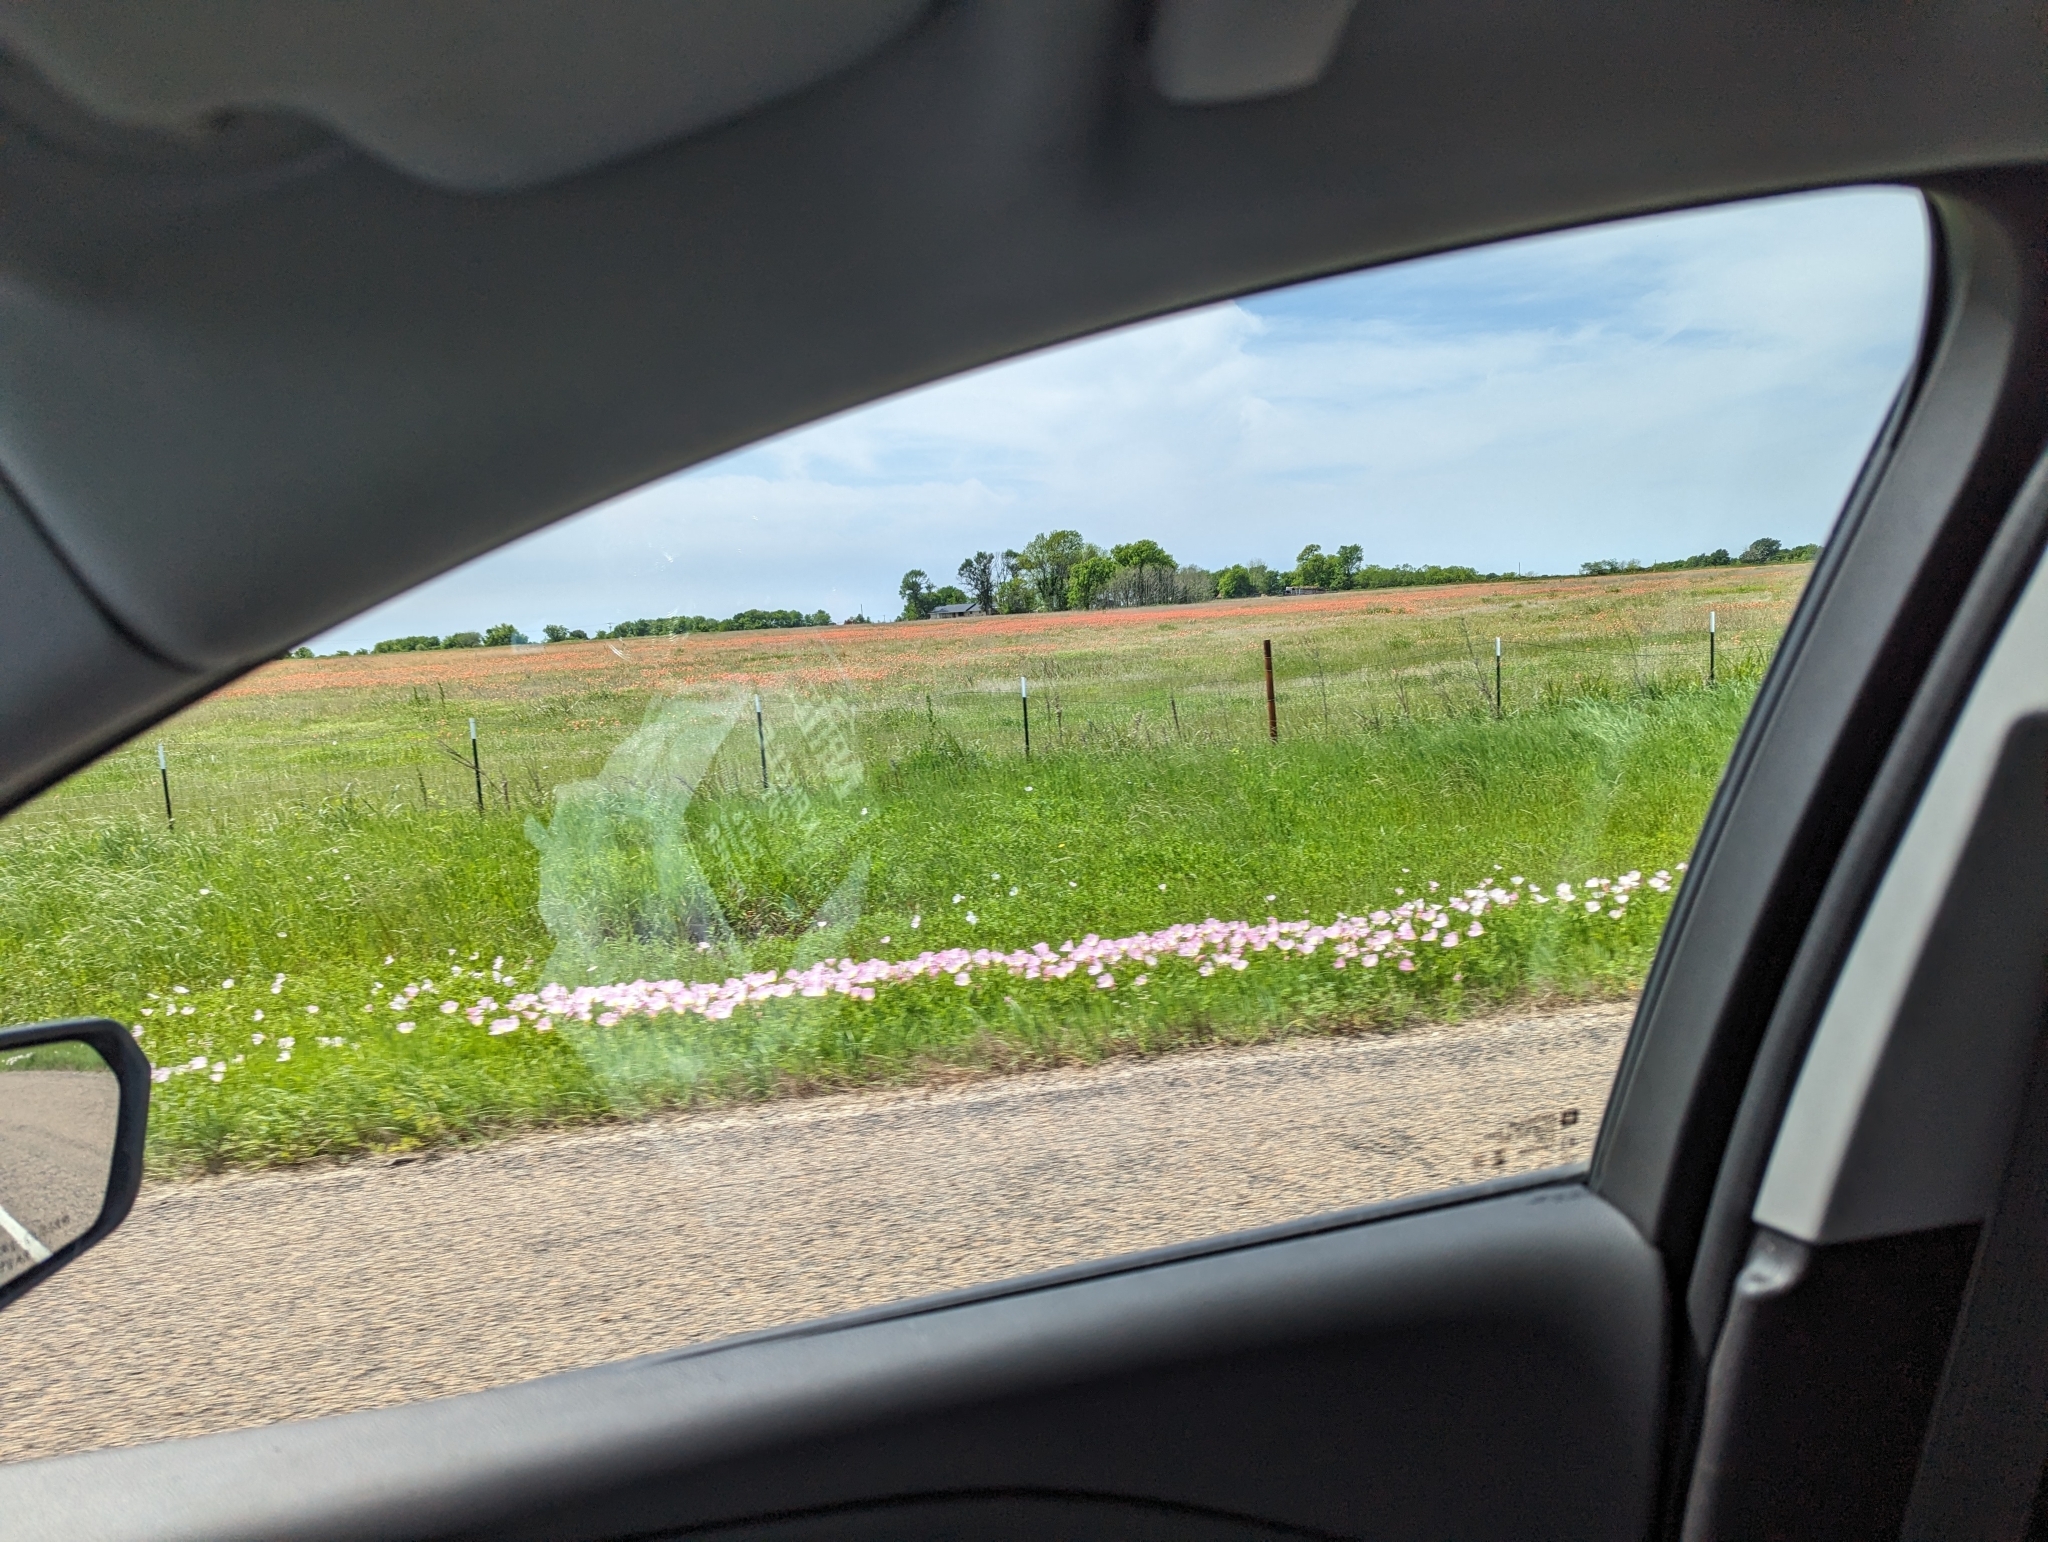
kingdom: Plantae
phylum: Tracheophyta
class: Magnoliopsida
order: Myrtales
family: Onagraceae
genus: Oenothera
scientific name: Oenothera speciosa
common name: White evening-primrose
